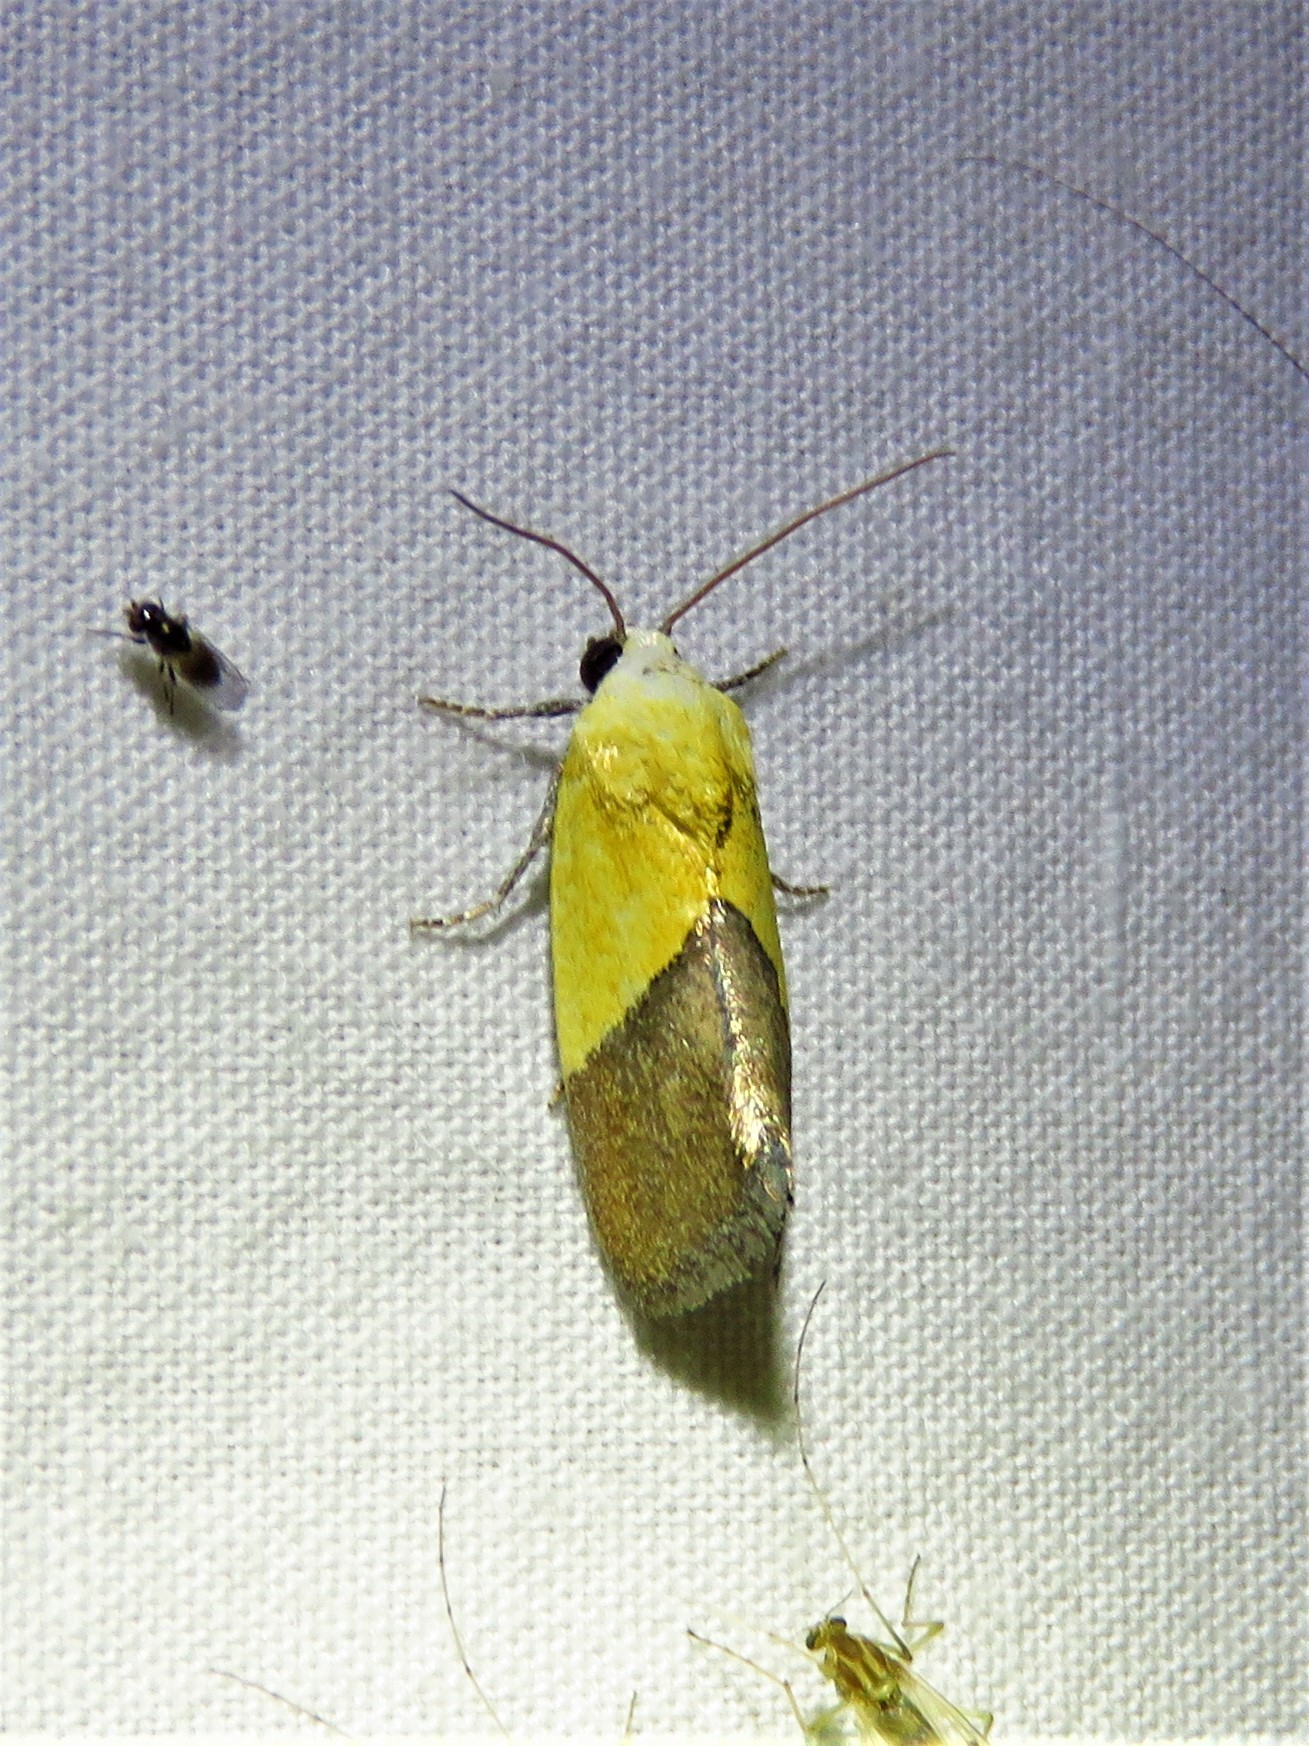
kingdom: Animalia
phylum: Arthropoda
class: Insecta
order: Lepidoptera
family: Noctuidae
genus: Acontia
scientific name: Acontia semiflava
